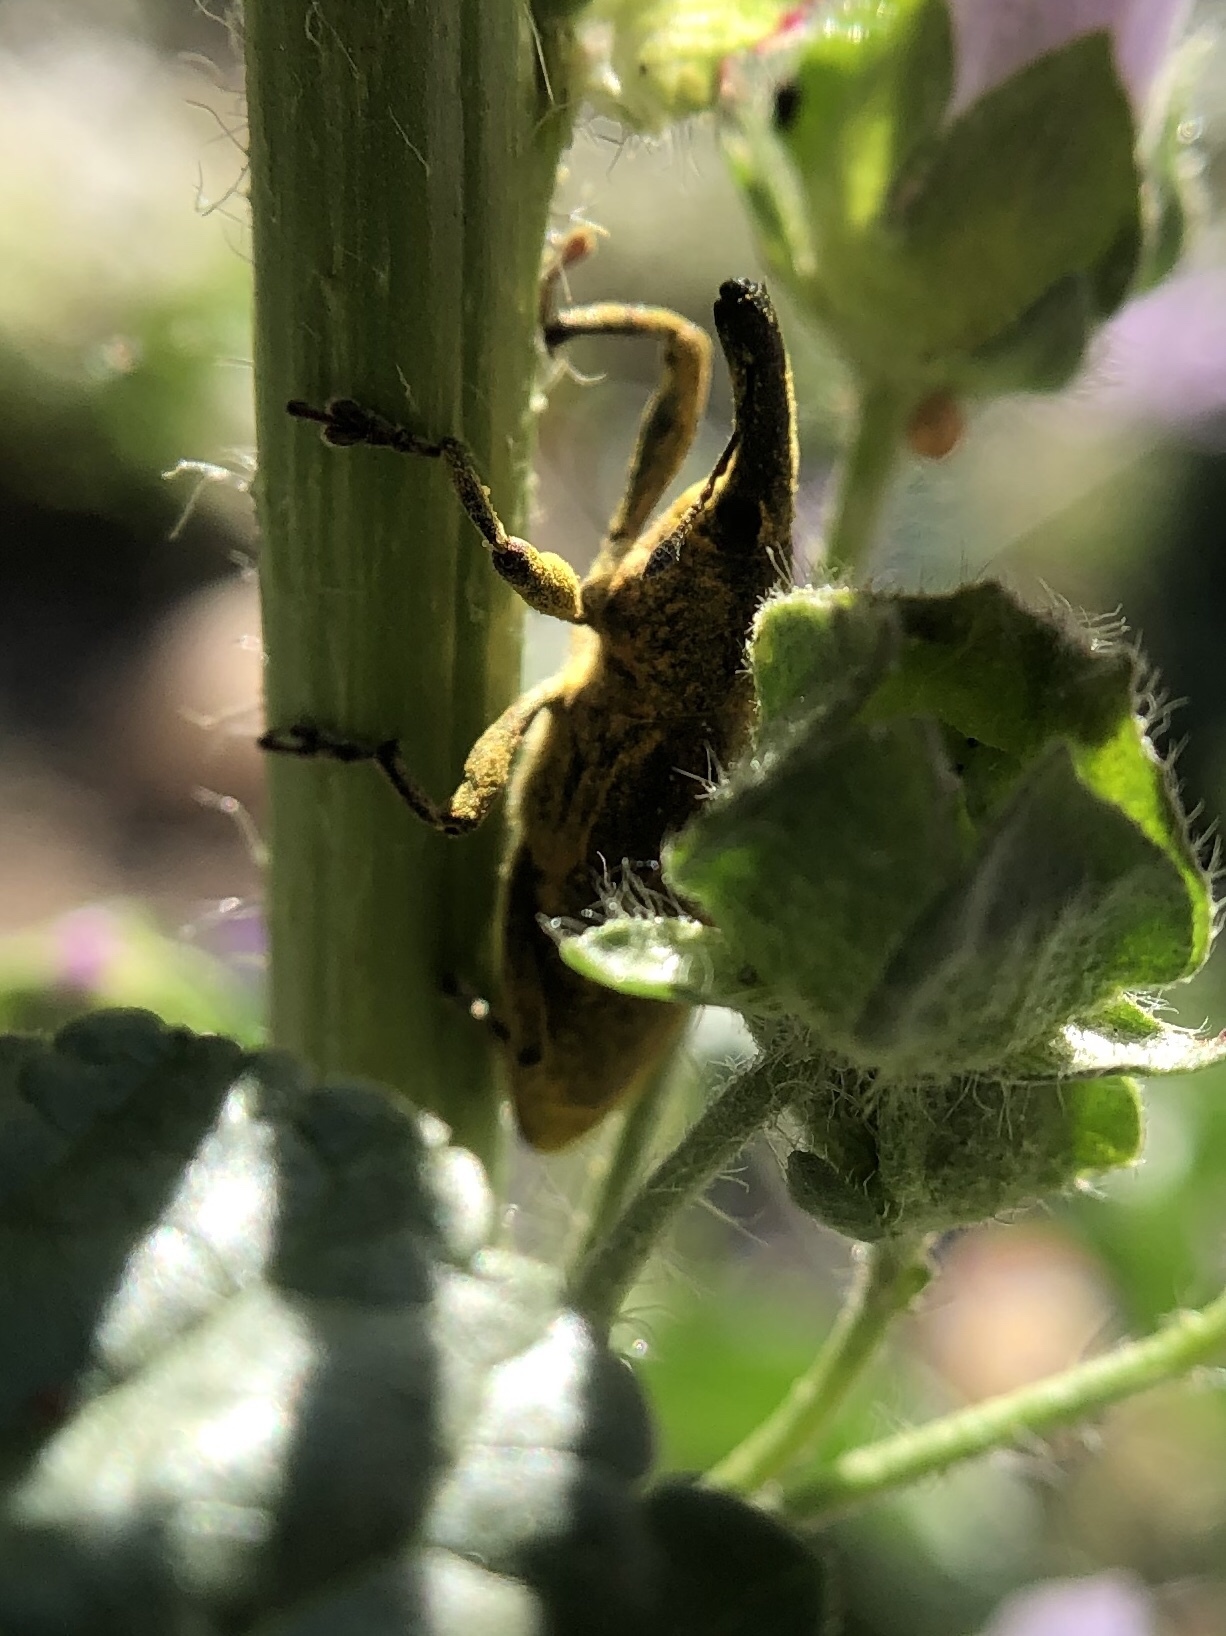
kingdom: Animalia
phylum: Arthropoda
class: Insecta
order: Coleoptera
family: Curculionidae
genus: Lixus
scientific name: Lixus pulverulentus
